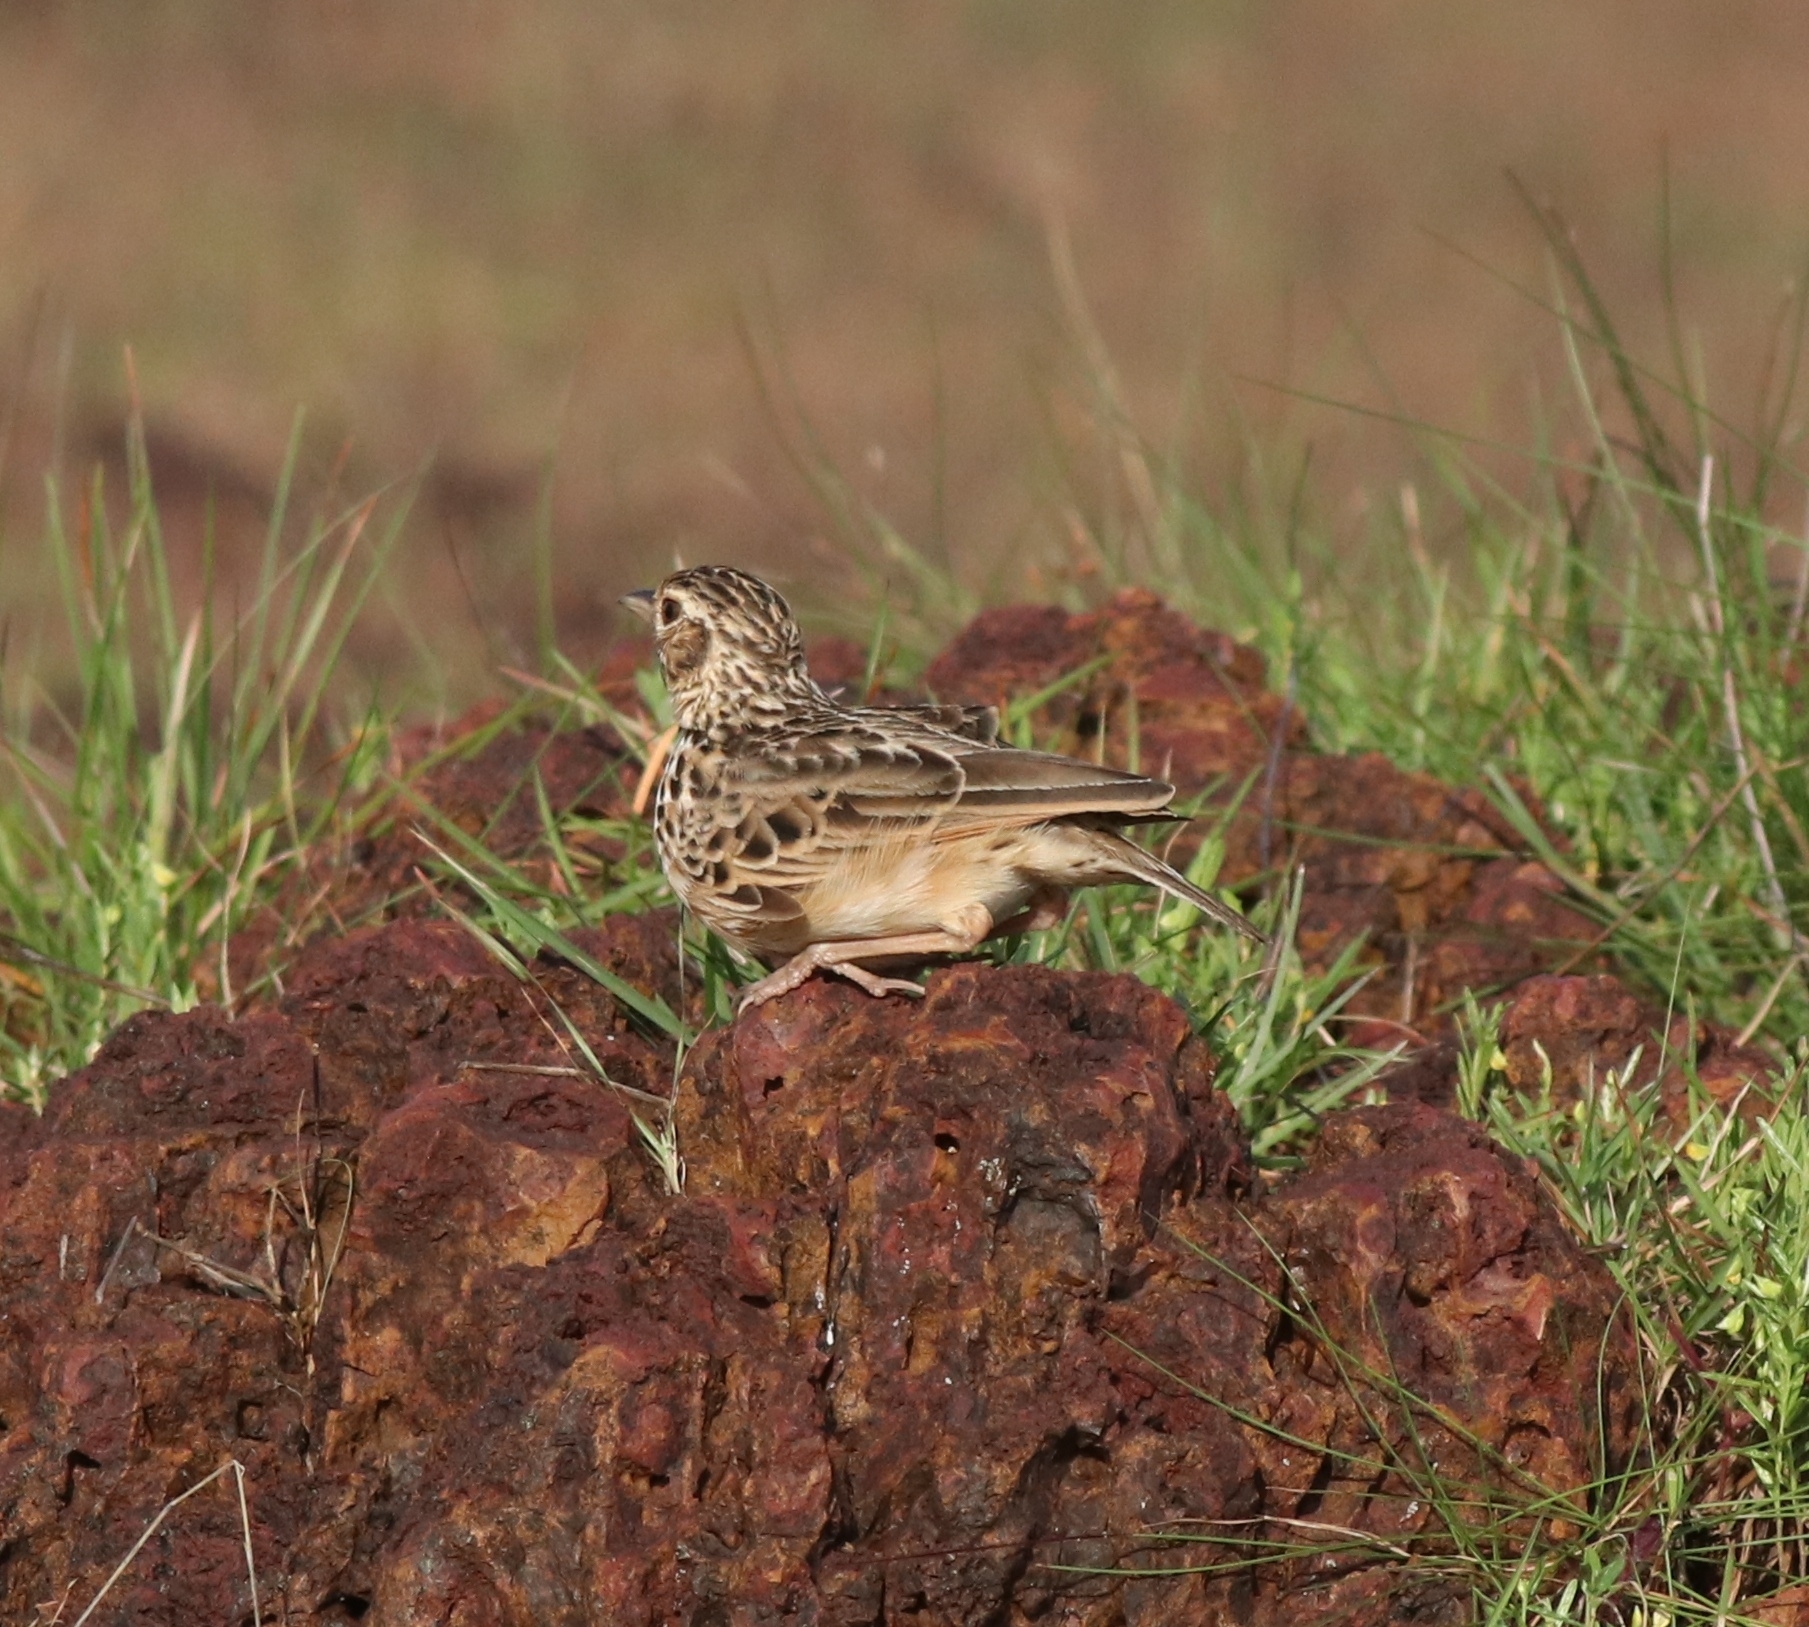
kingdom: Animalia
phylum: Chordata
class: Aves
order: Passeriformes
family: Alaudidae
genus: Alauda
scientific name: Alauda gulgula
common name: Oriental skylark
